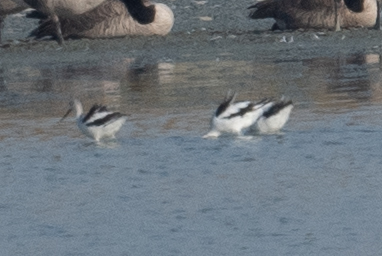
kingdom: Animalia
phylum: Chordata
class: Aves
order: Charadriiformes
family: Recurvirostridae
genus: Recurvirostra
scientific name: Recurvirostra americana
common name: American avocet
